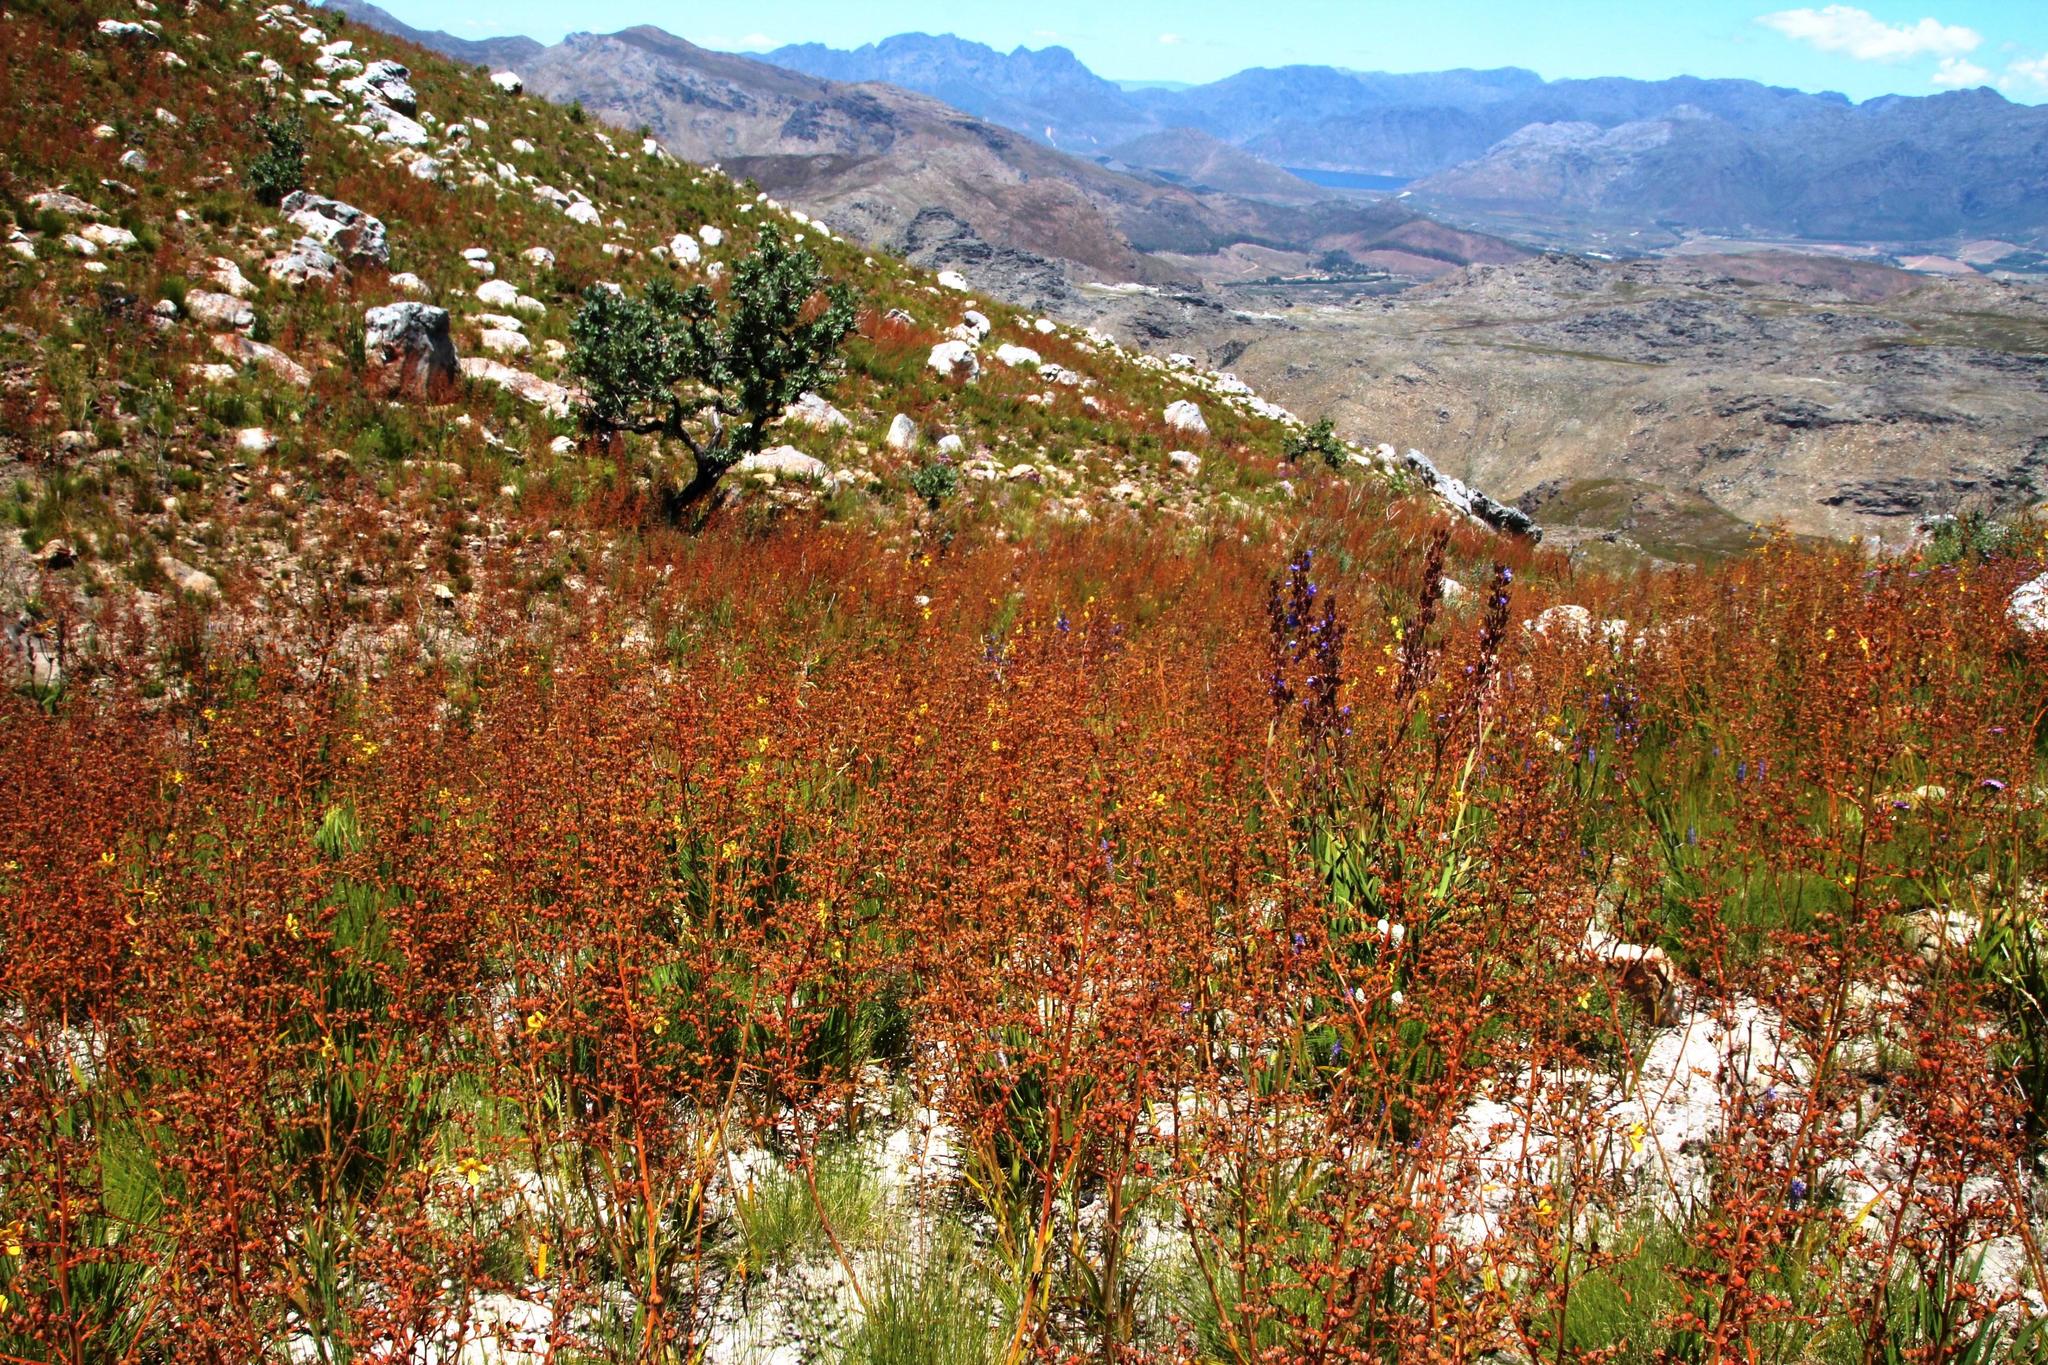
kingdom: Plantae
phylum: Tracheophyta
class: Liliopsida
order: Commelinales
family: Haemodoraceae
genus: Wachendorfia
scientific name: Wachendorfia paniculata
